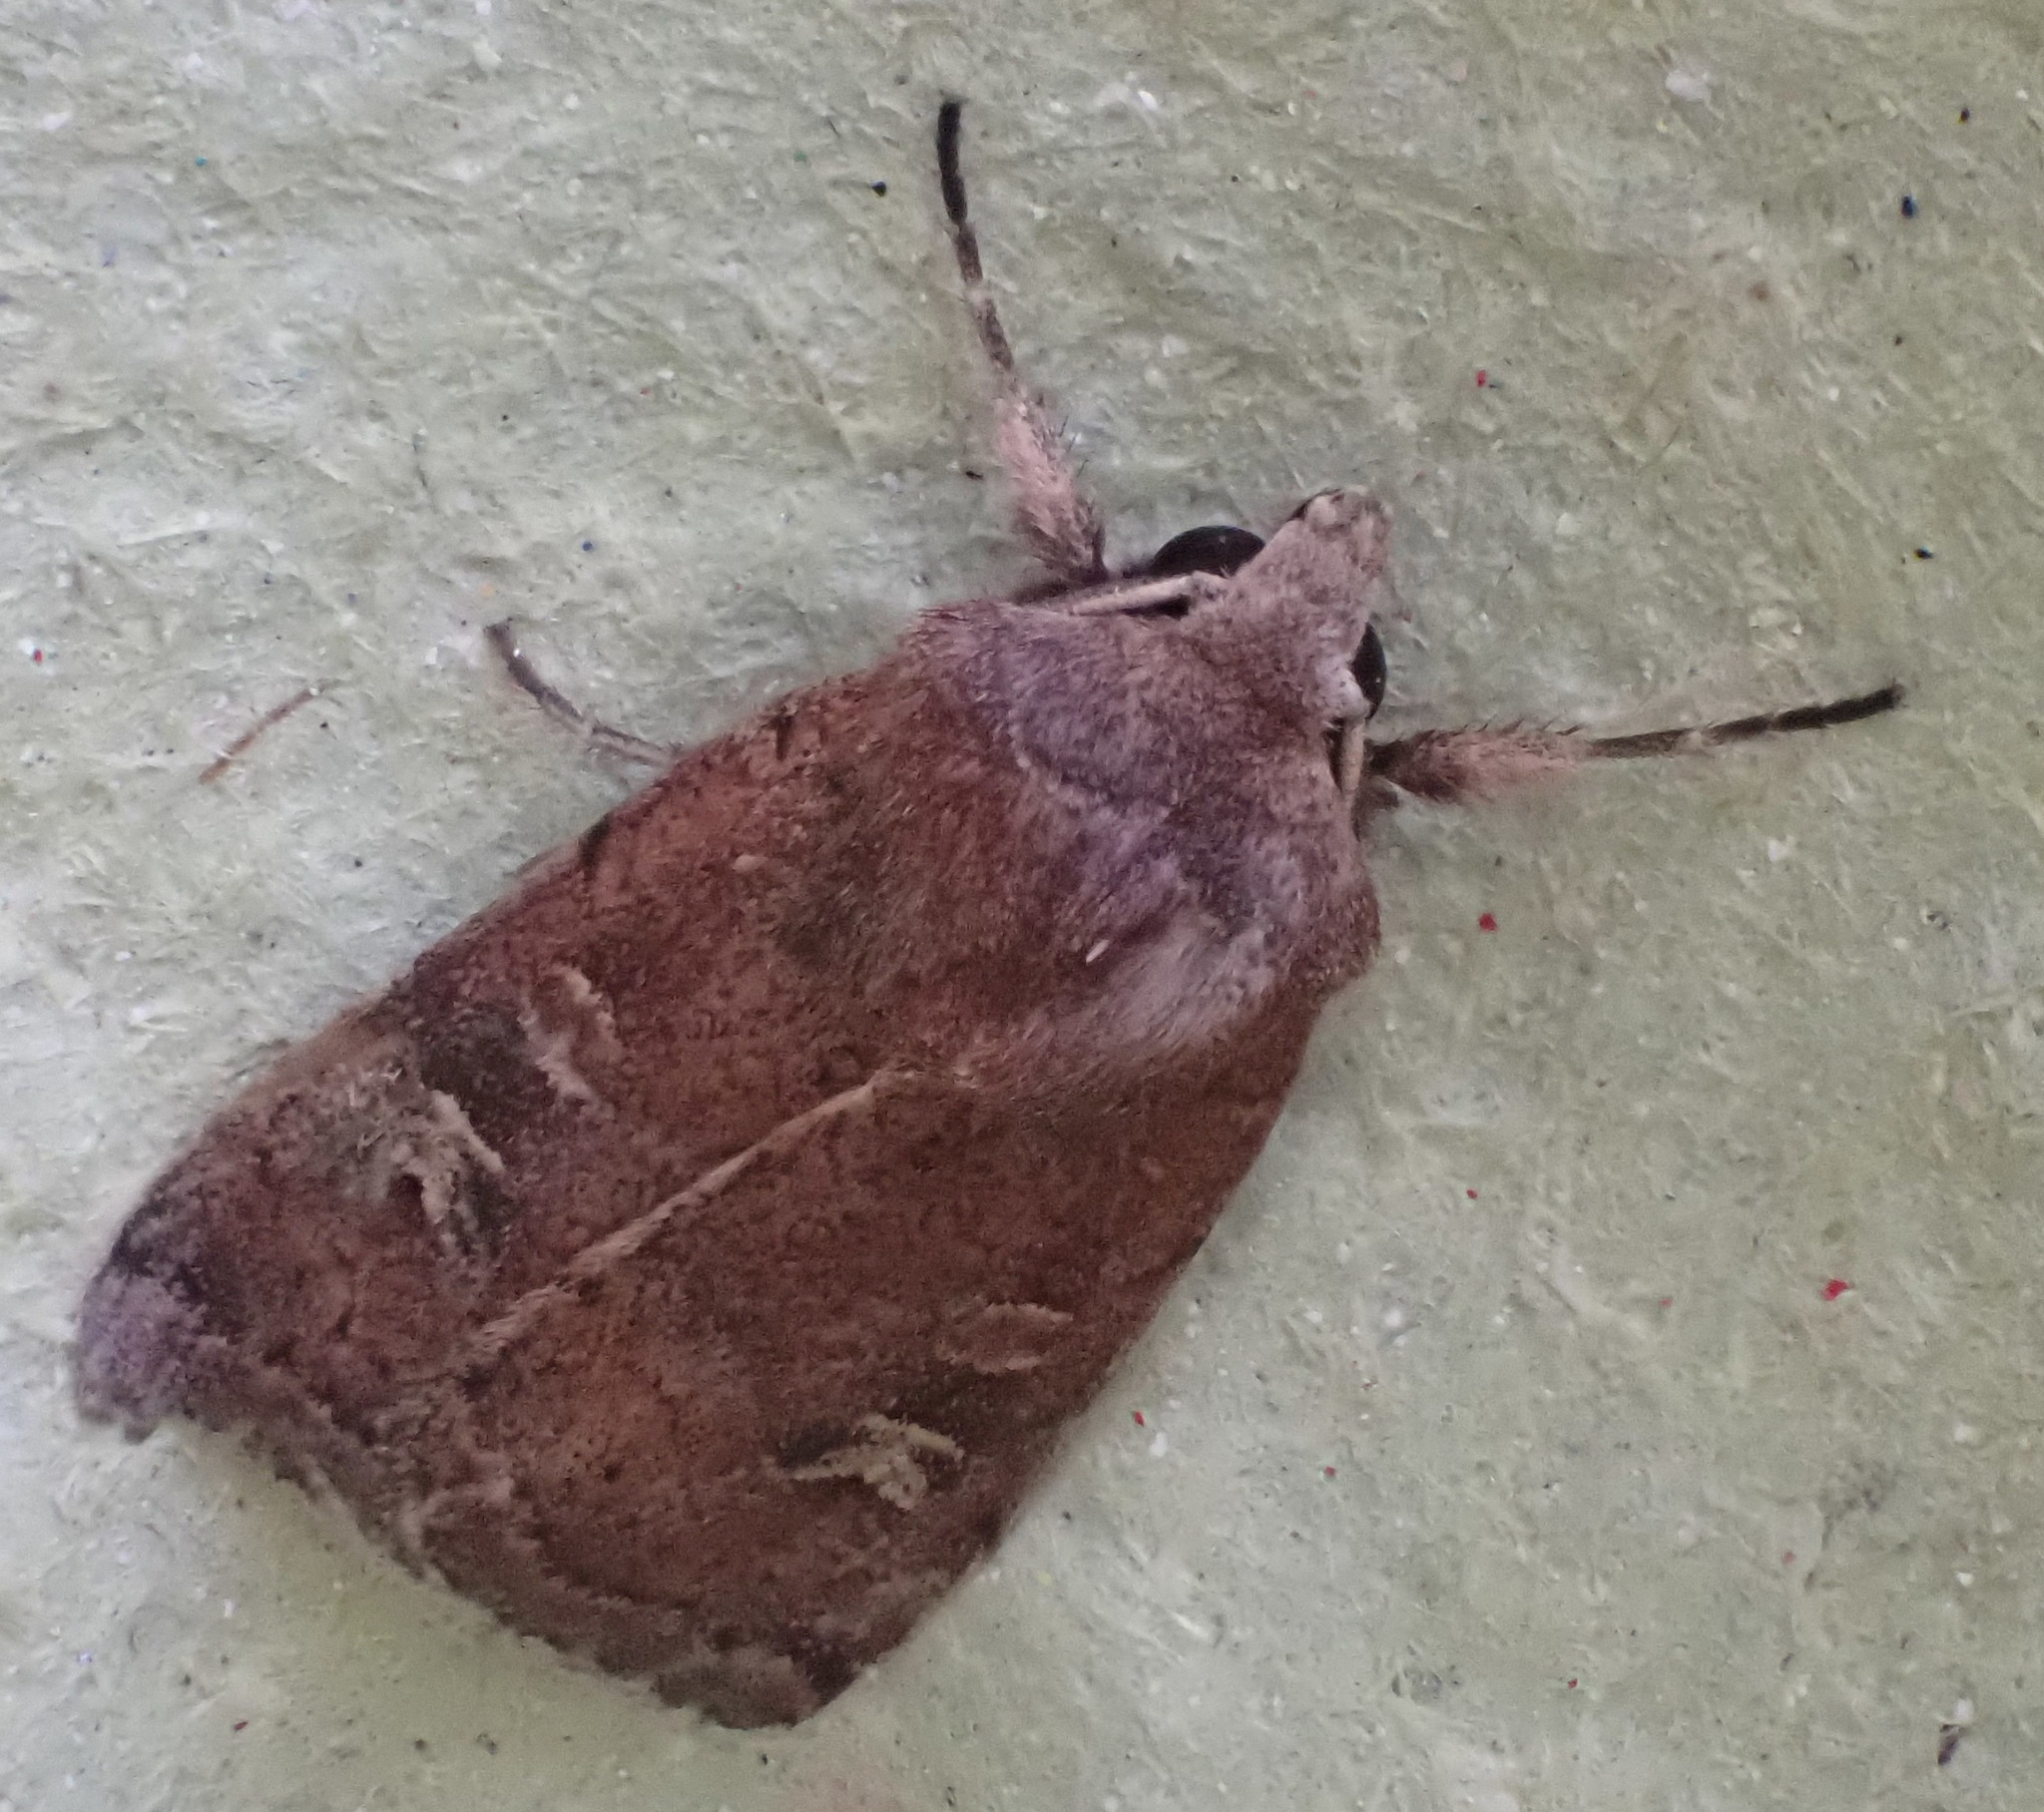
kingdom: Animalia
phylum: Arthropoda
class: Insecta
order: Lepidoptera
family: Noctuidae
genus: Xestia
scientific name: Xestia xanthographa
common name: Square-spot rustic
